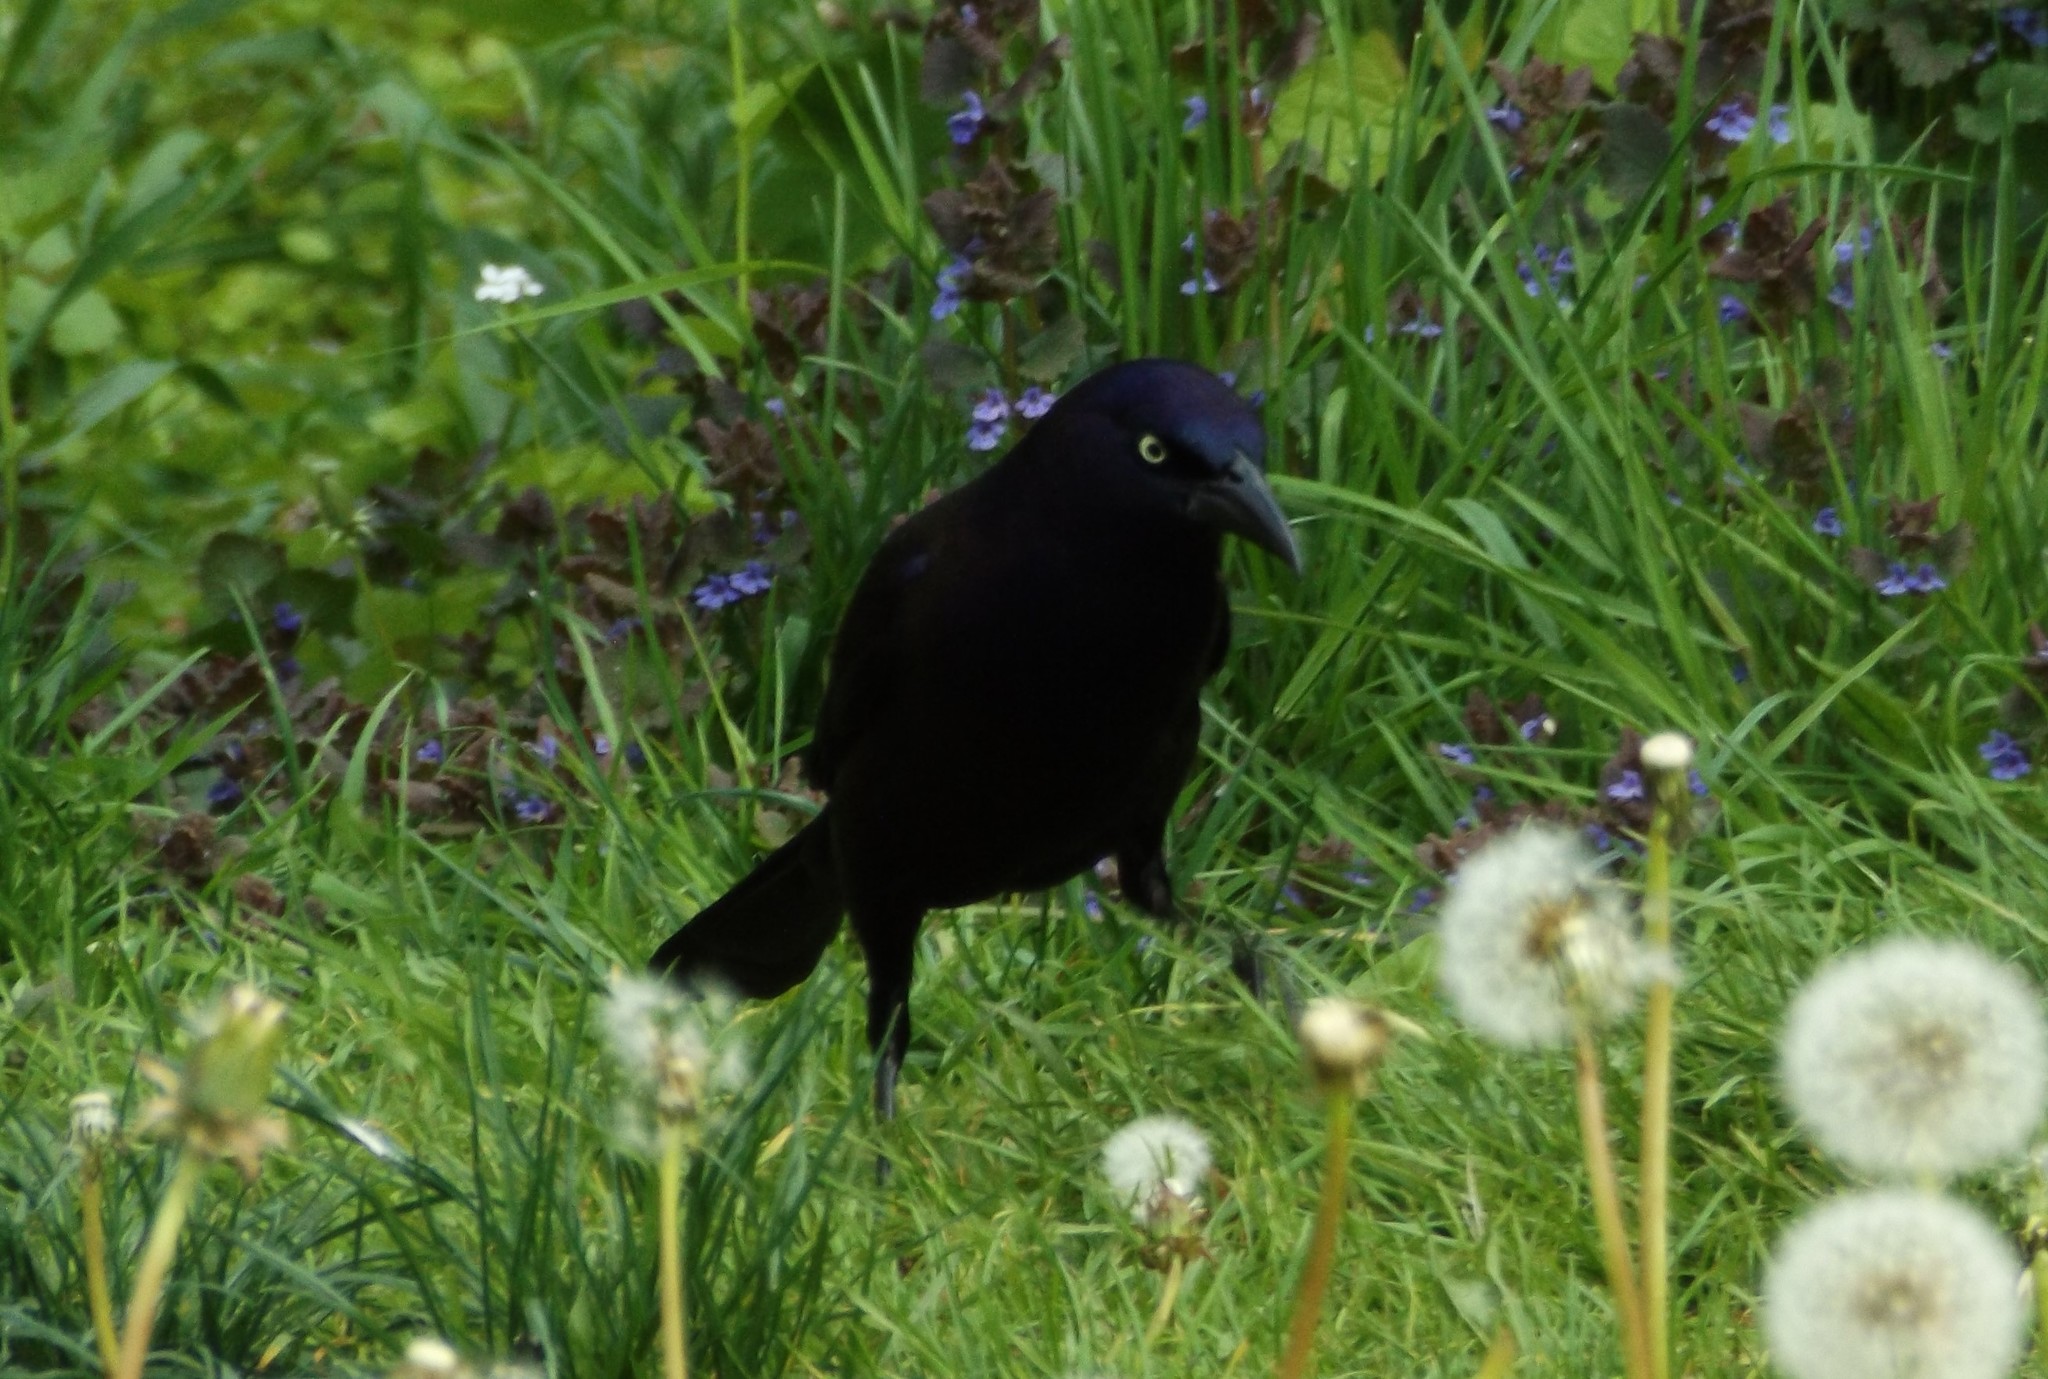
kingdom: Animalia
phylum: Chordata
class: Aves
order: Passeriformes
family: Icteridae
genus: Quiscalus
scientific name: Quiscalus quiscula
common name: Common grackle
